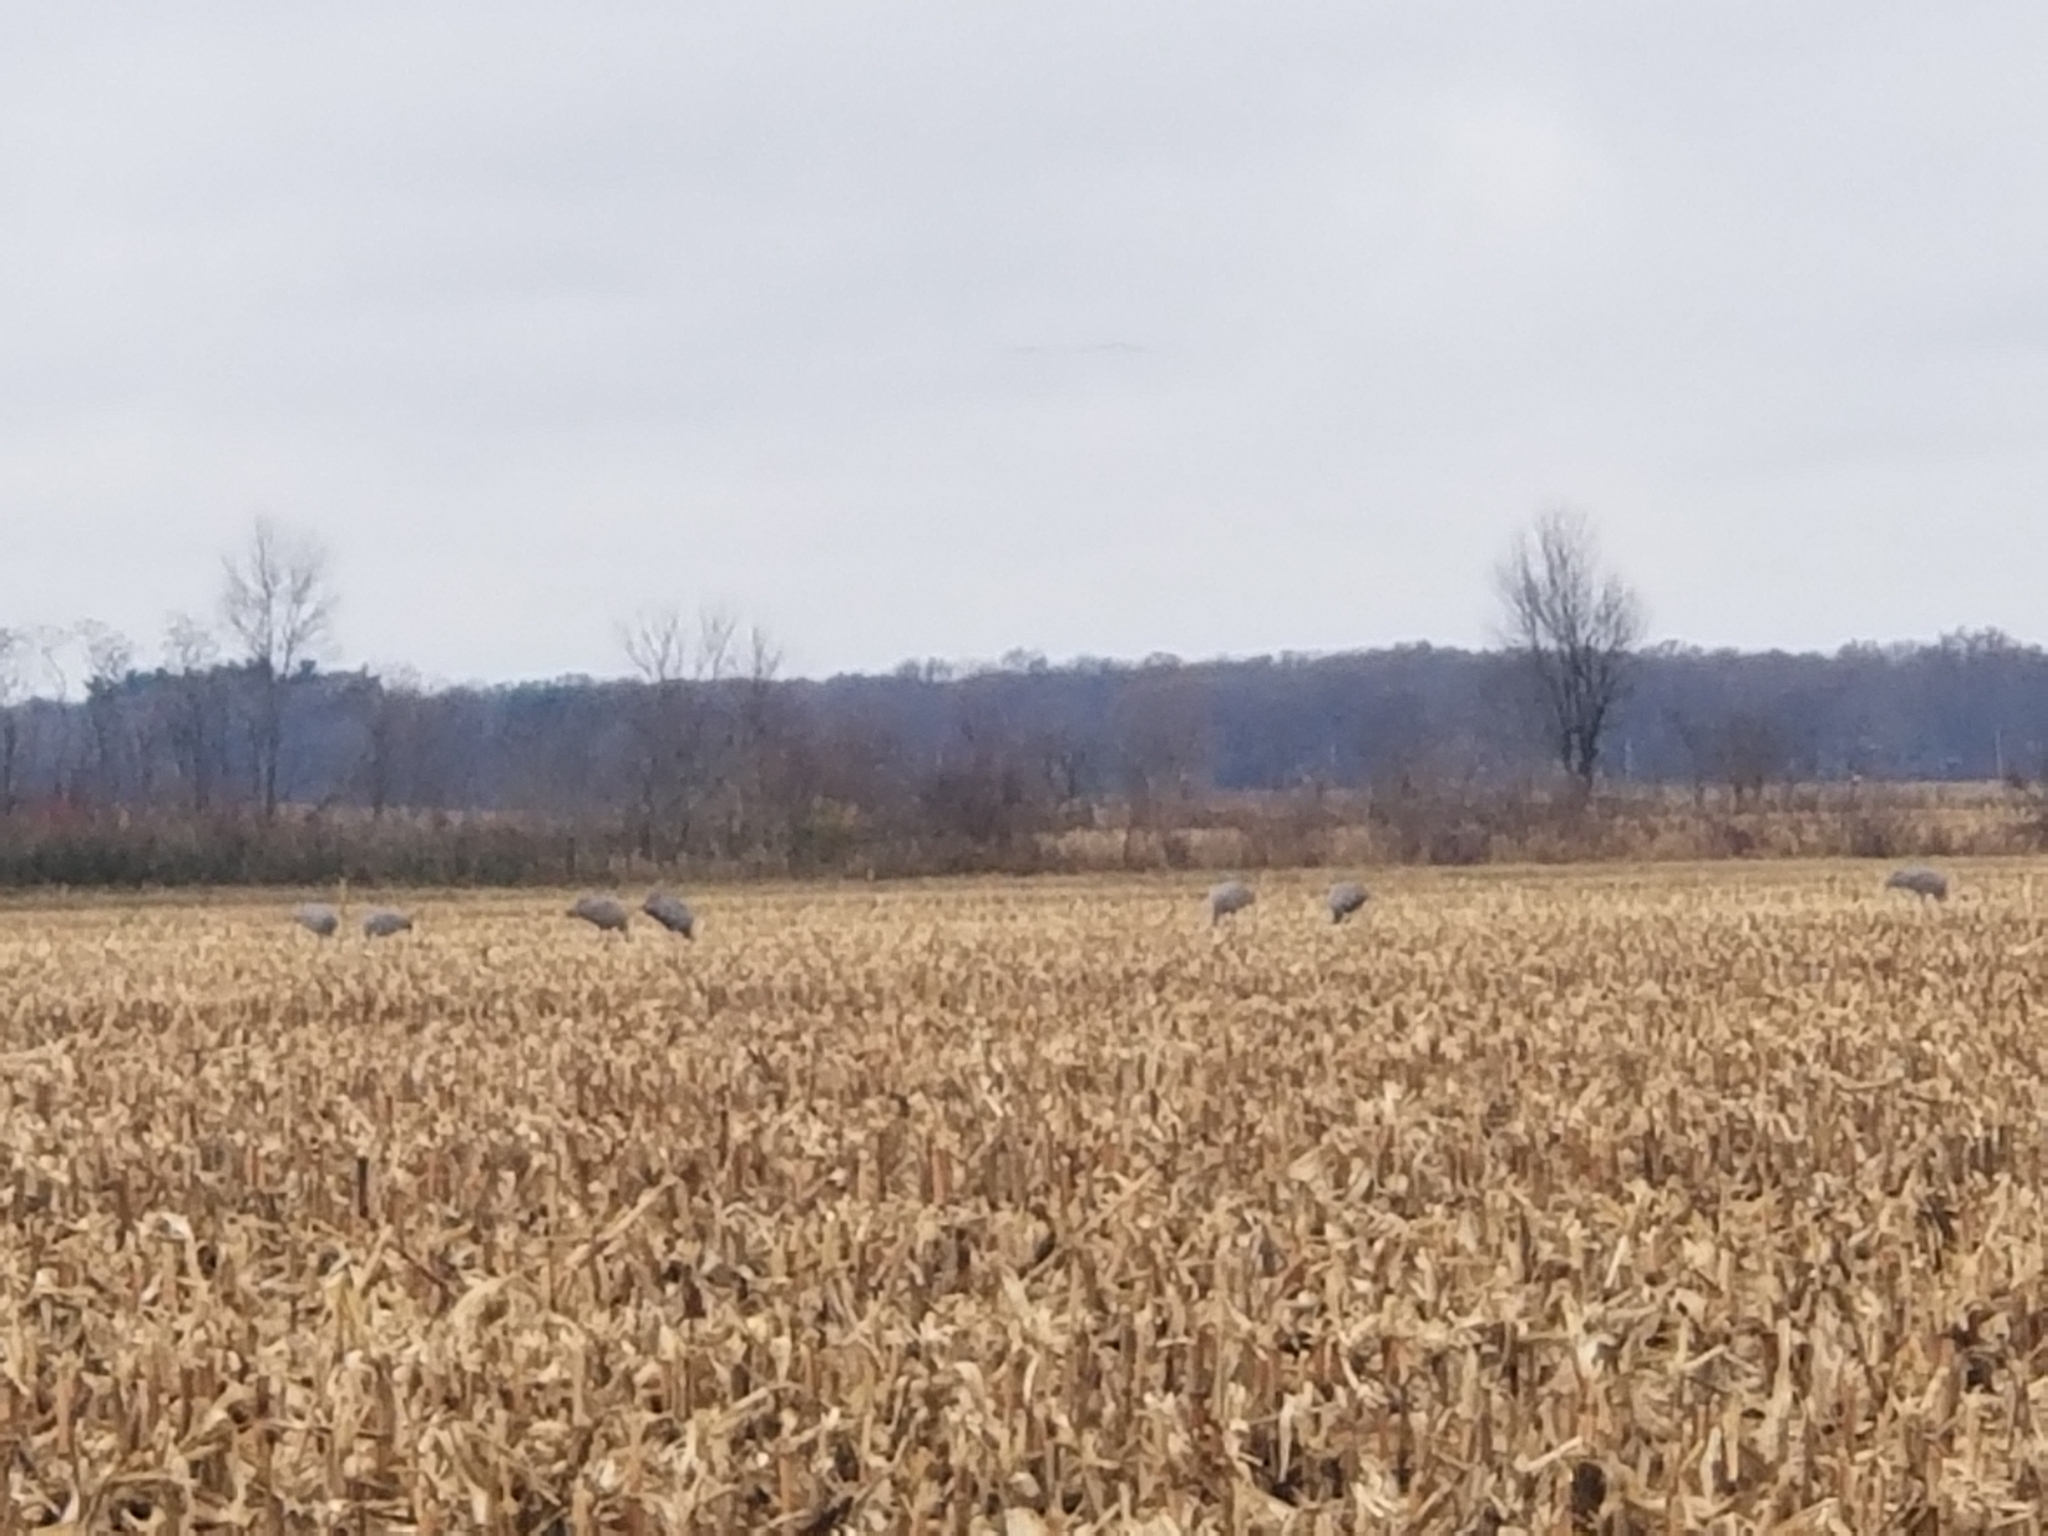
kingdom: Animalia
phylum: Chordata
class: Aves
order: Gruiformes
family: Gruidae
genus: Grus
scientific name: Grus canadensis
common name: Sandhill crane
